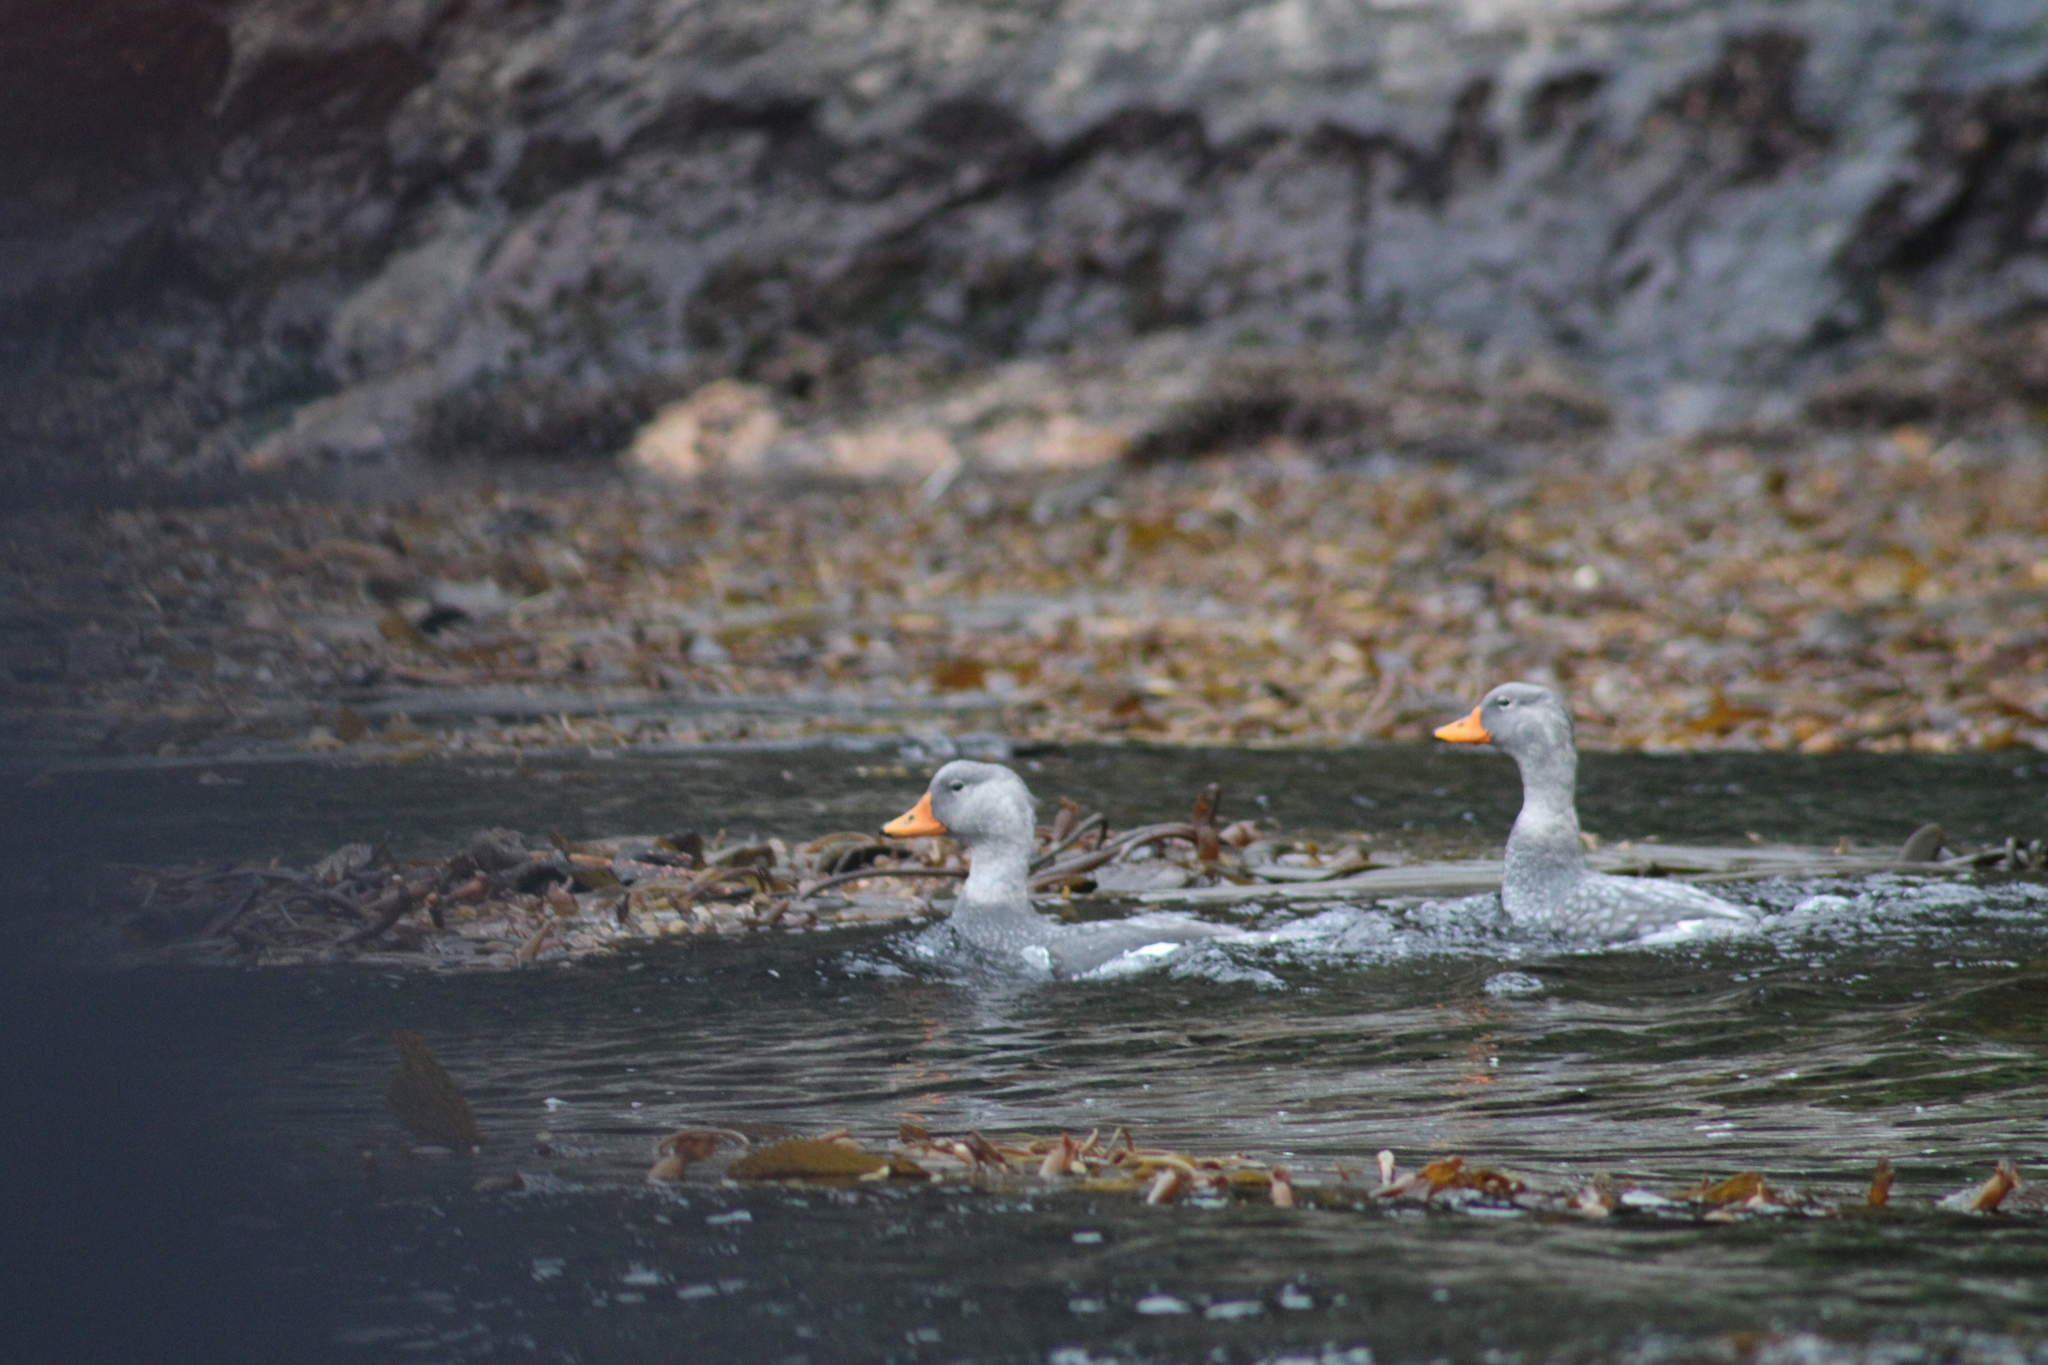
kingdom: Animalia
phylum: Chordata
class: Aves
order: Anseriformes
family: Anatidae
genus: Tachyeres
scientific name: Tachyeres pteneres
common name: Fuegian steamer duck
